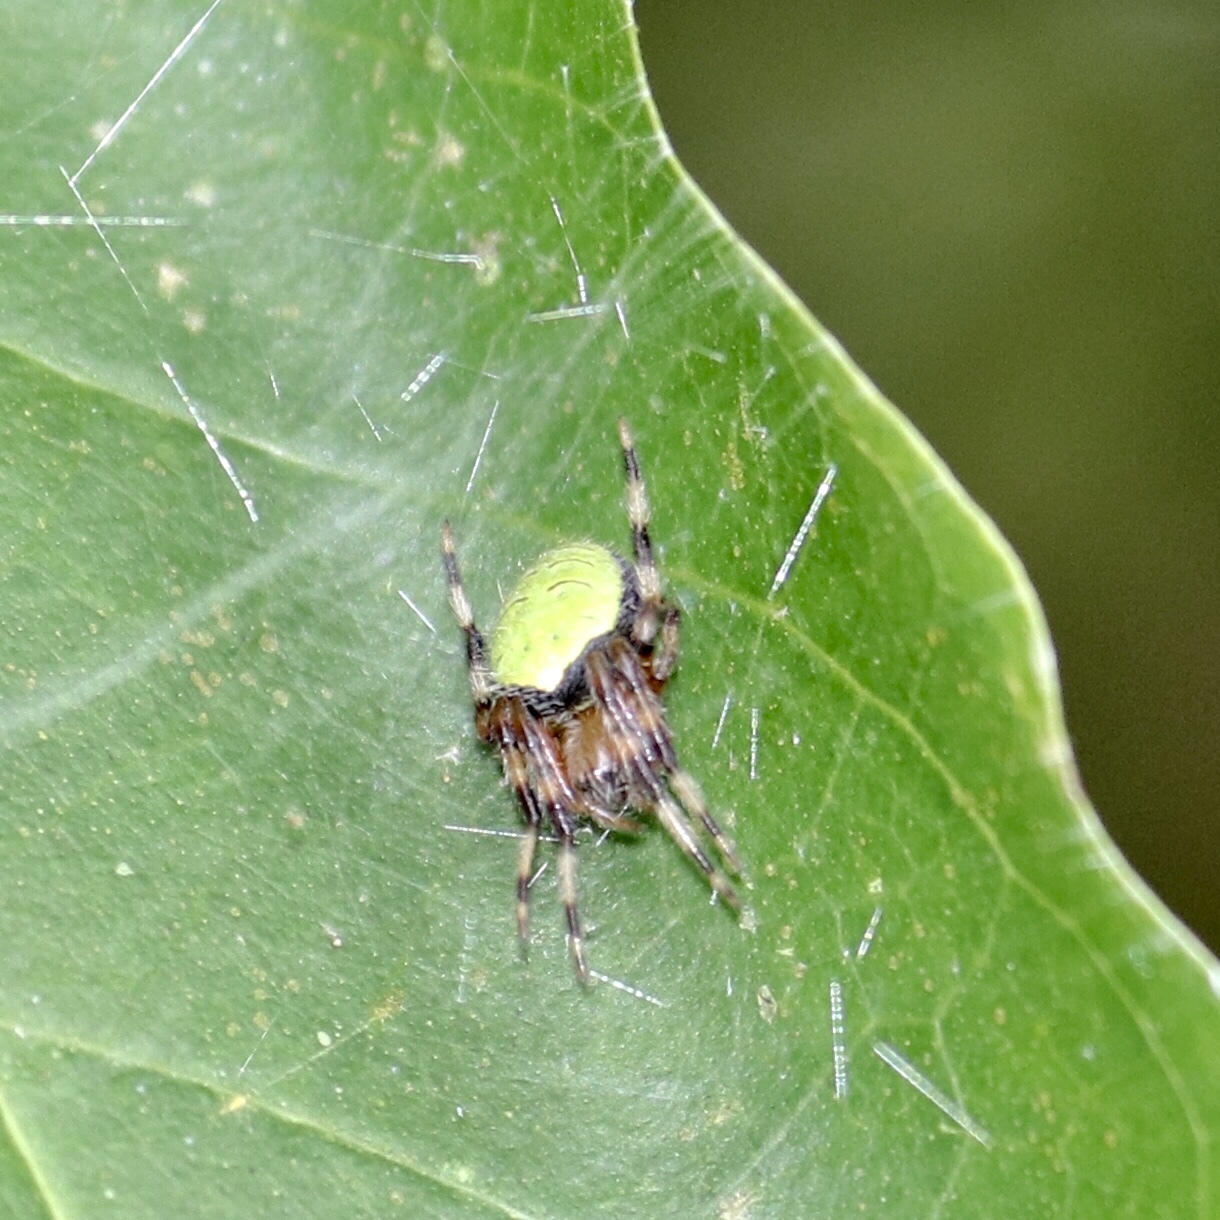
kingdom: Animalia
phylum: Arthropoda
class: Arachnida
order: Araneae
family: Araneidae
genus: Eriophora
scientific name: Eriophora ravilla
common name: Orb weavers
